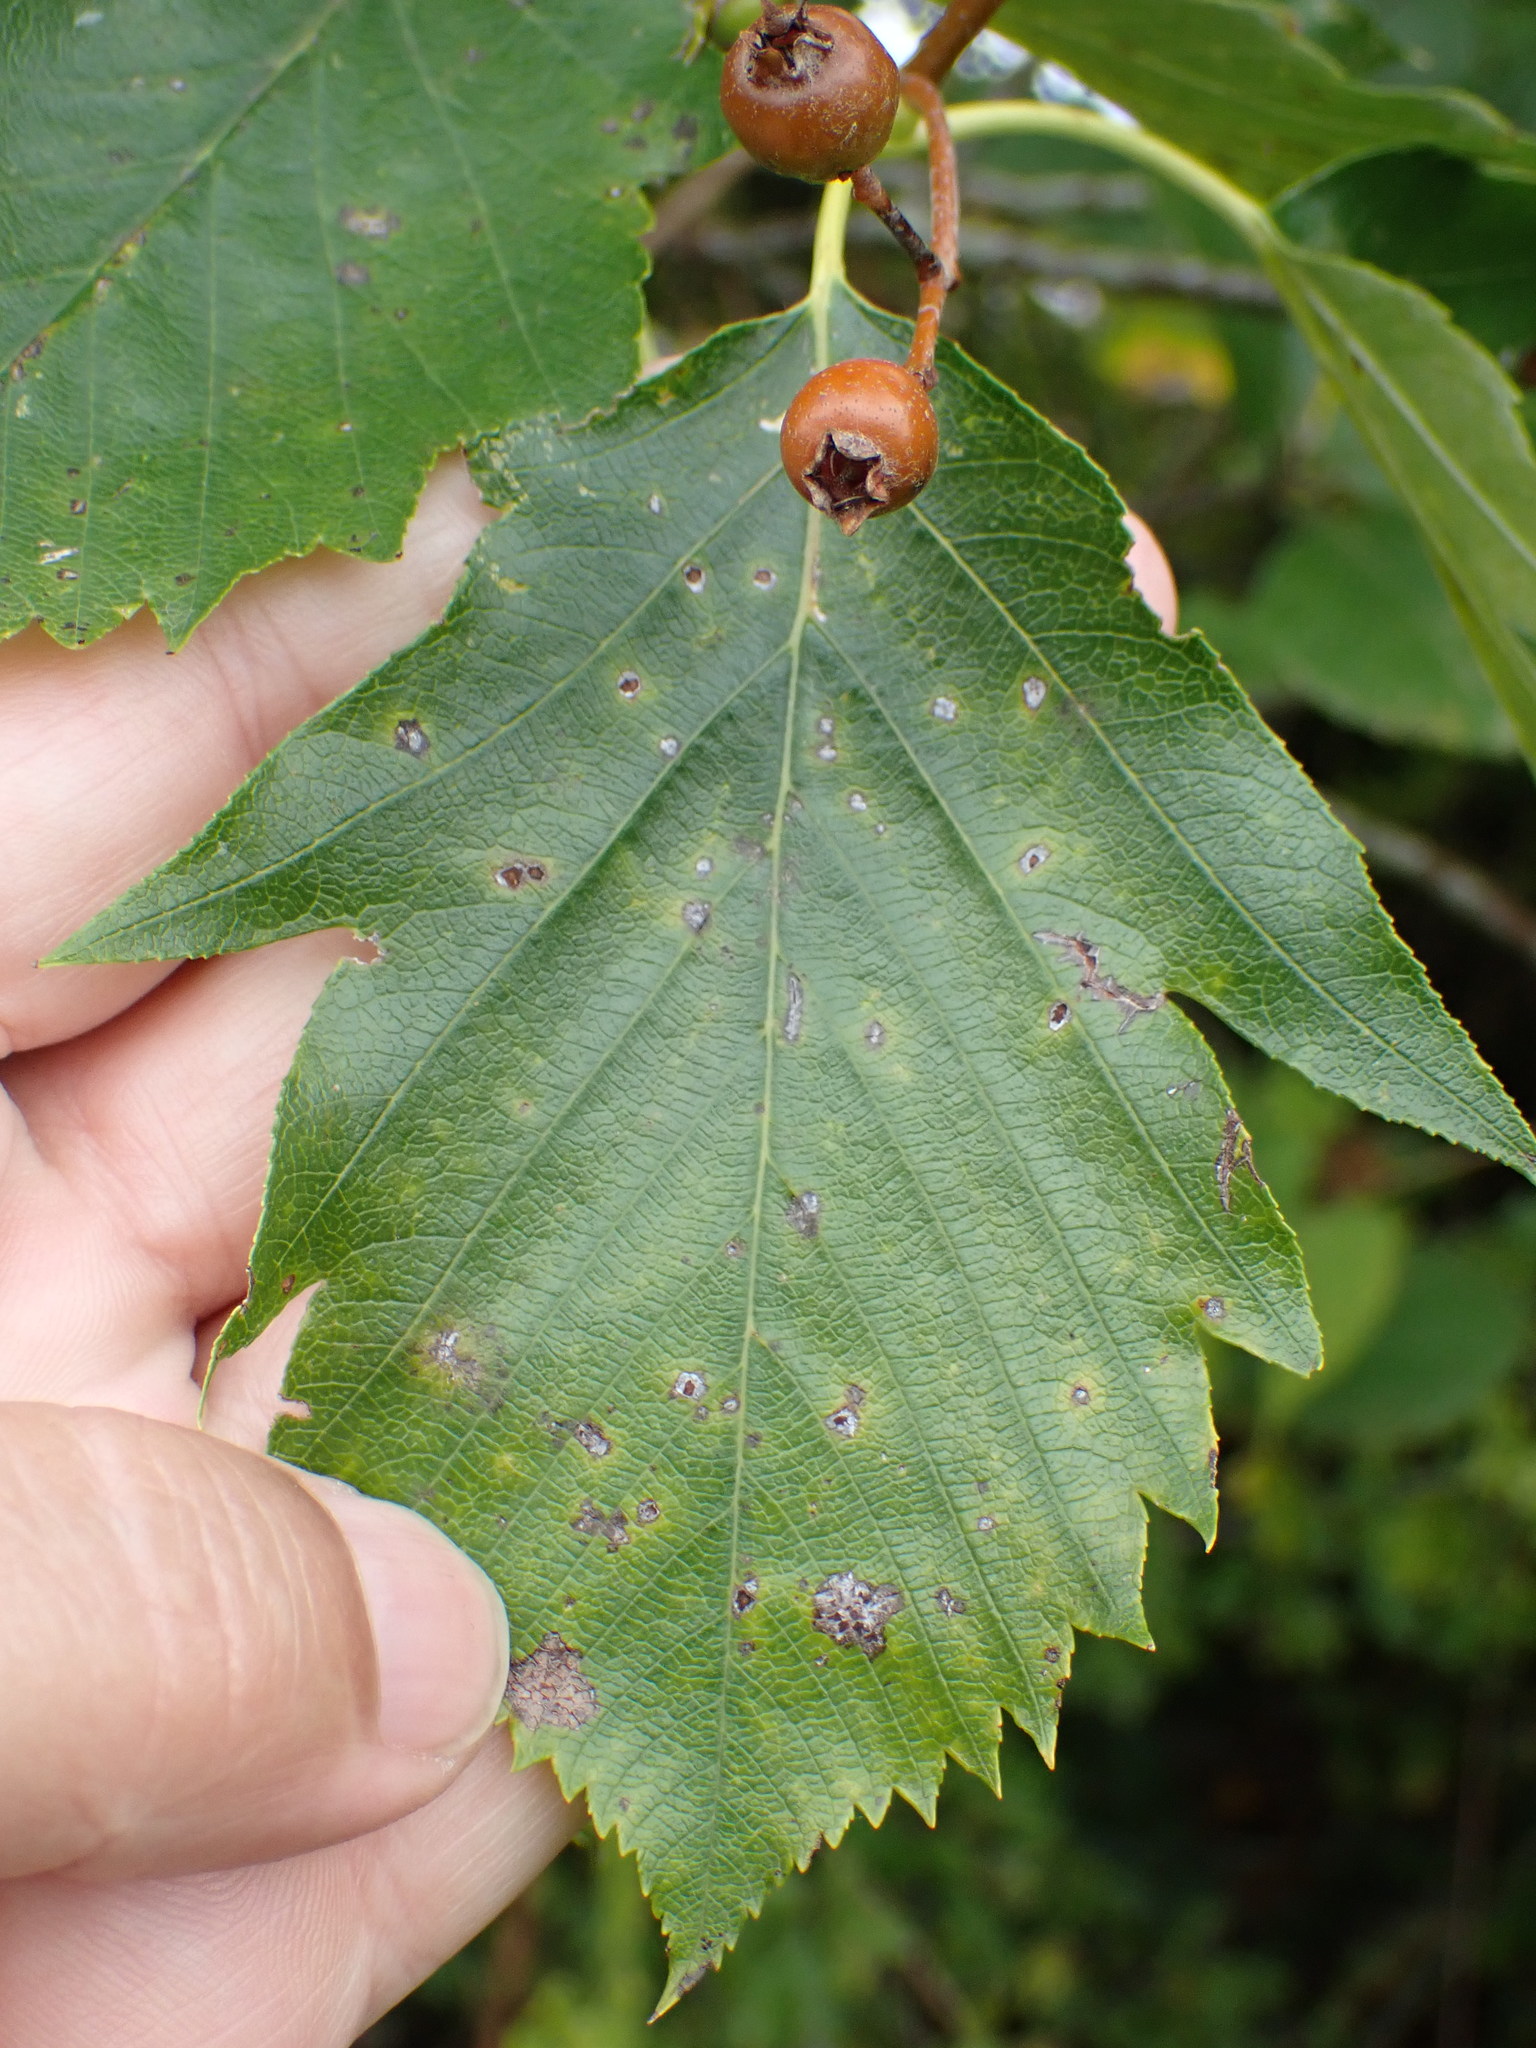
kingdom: Plantae
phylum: Tracheophyta
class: Magnoliopsida
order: Rosales
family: Rosaceae
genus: Torminalis
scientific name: Torminalis glaberrima
